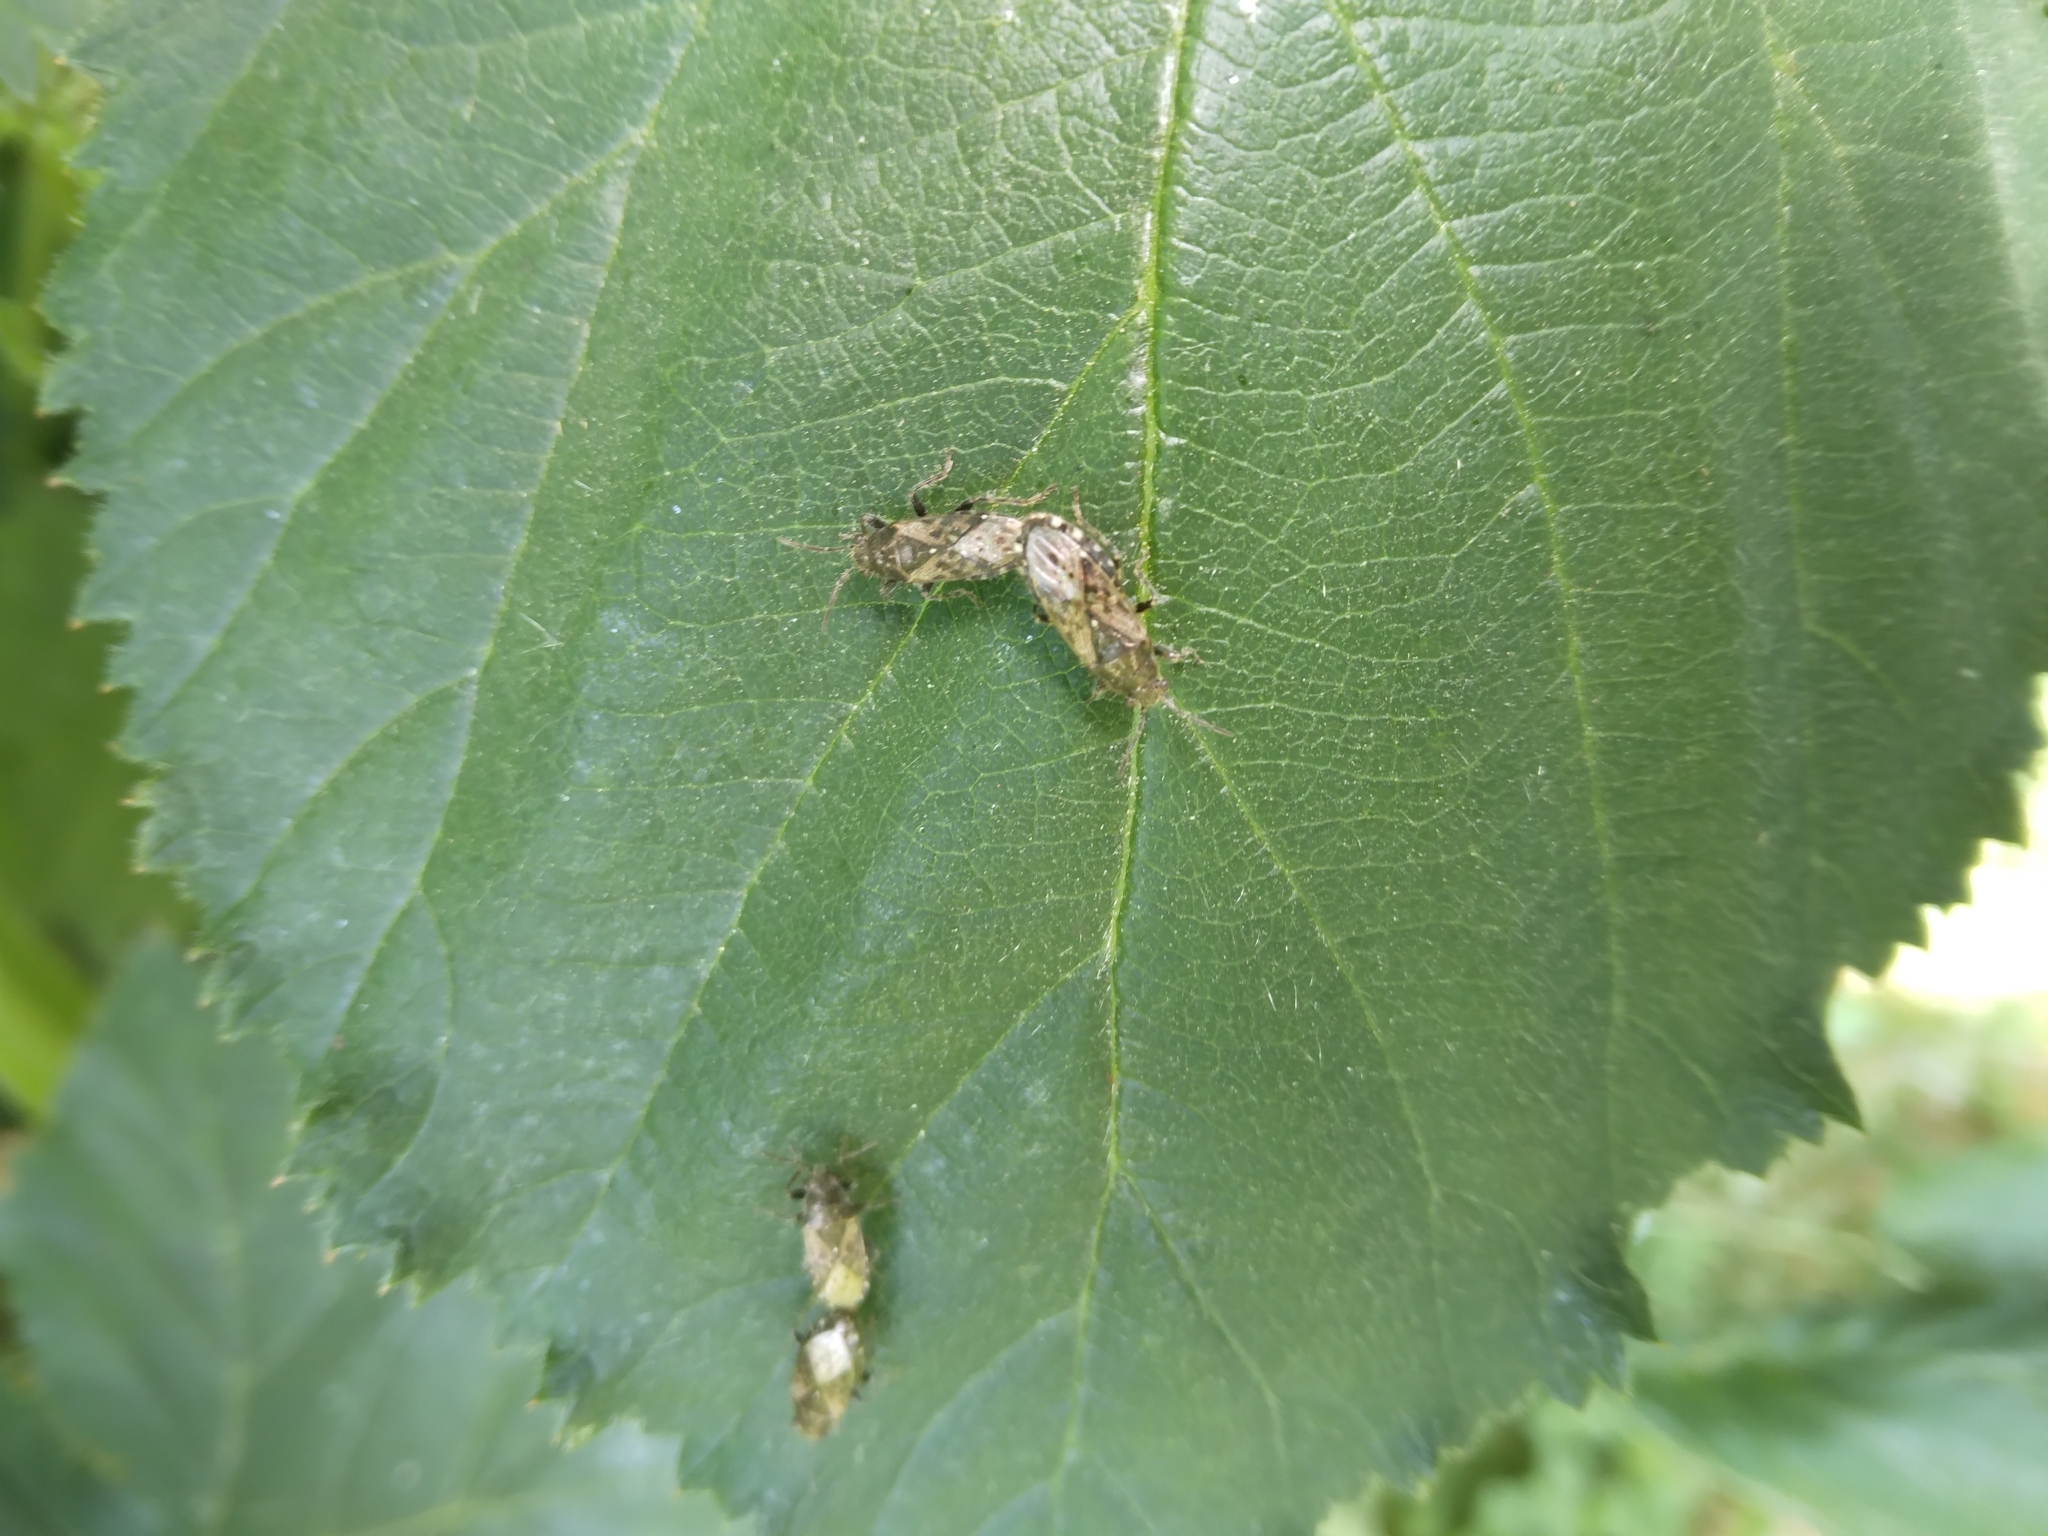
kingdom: Animalia
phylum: Arthropoda
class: Insecta
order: Hemiptera
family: Heterogastridae
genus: Heterogaster
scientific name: Heterogaster urticae
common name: Seed bug
